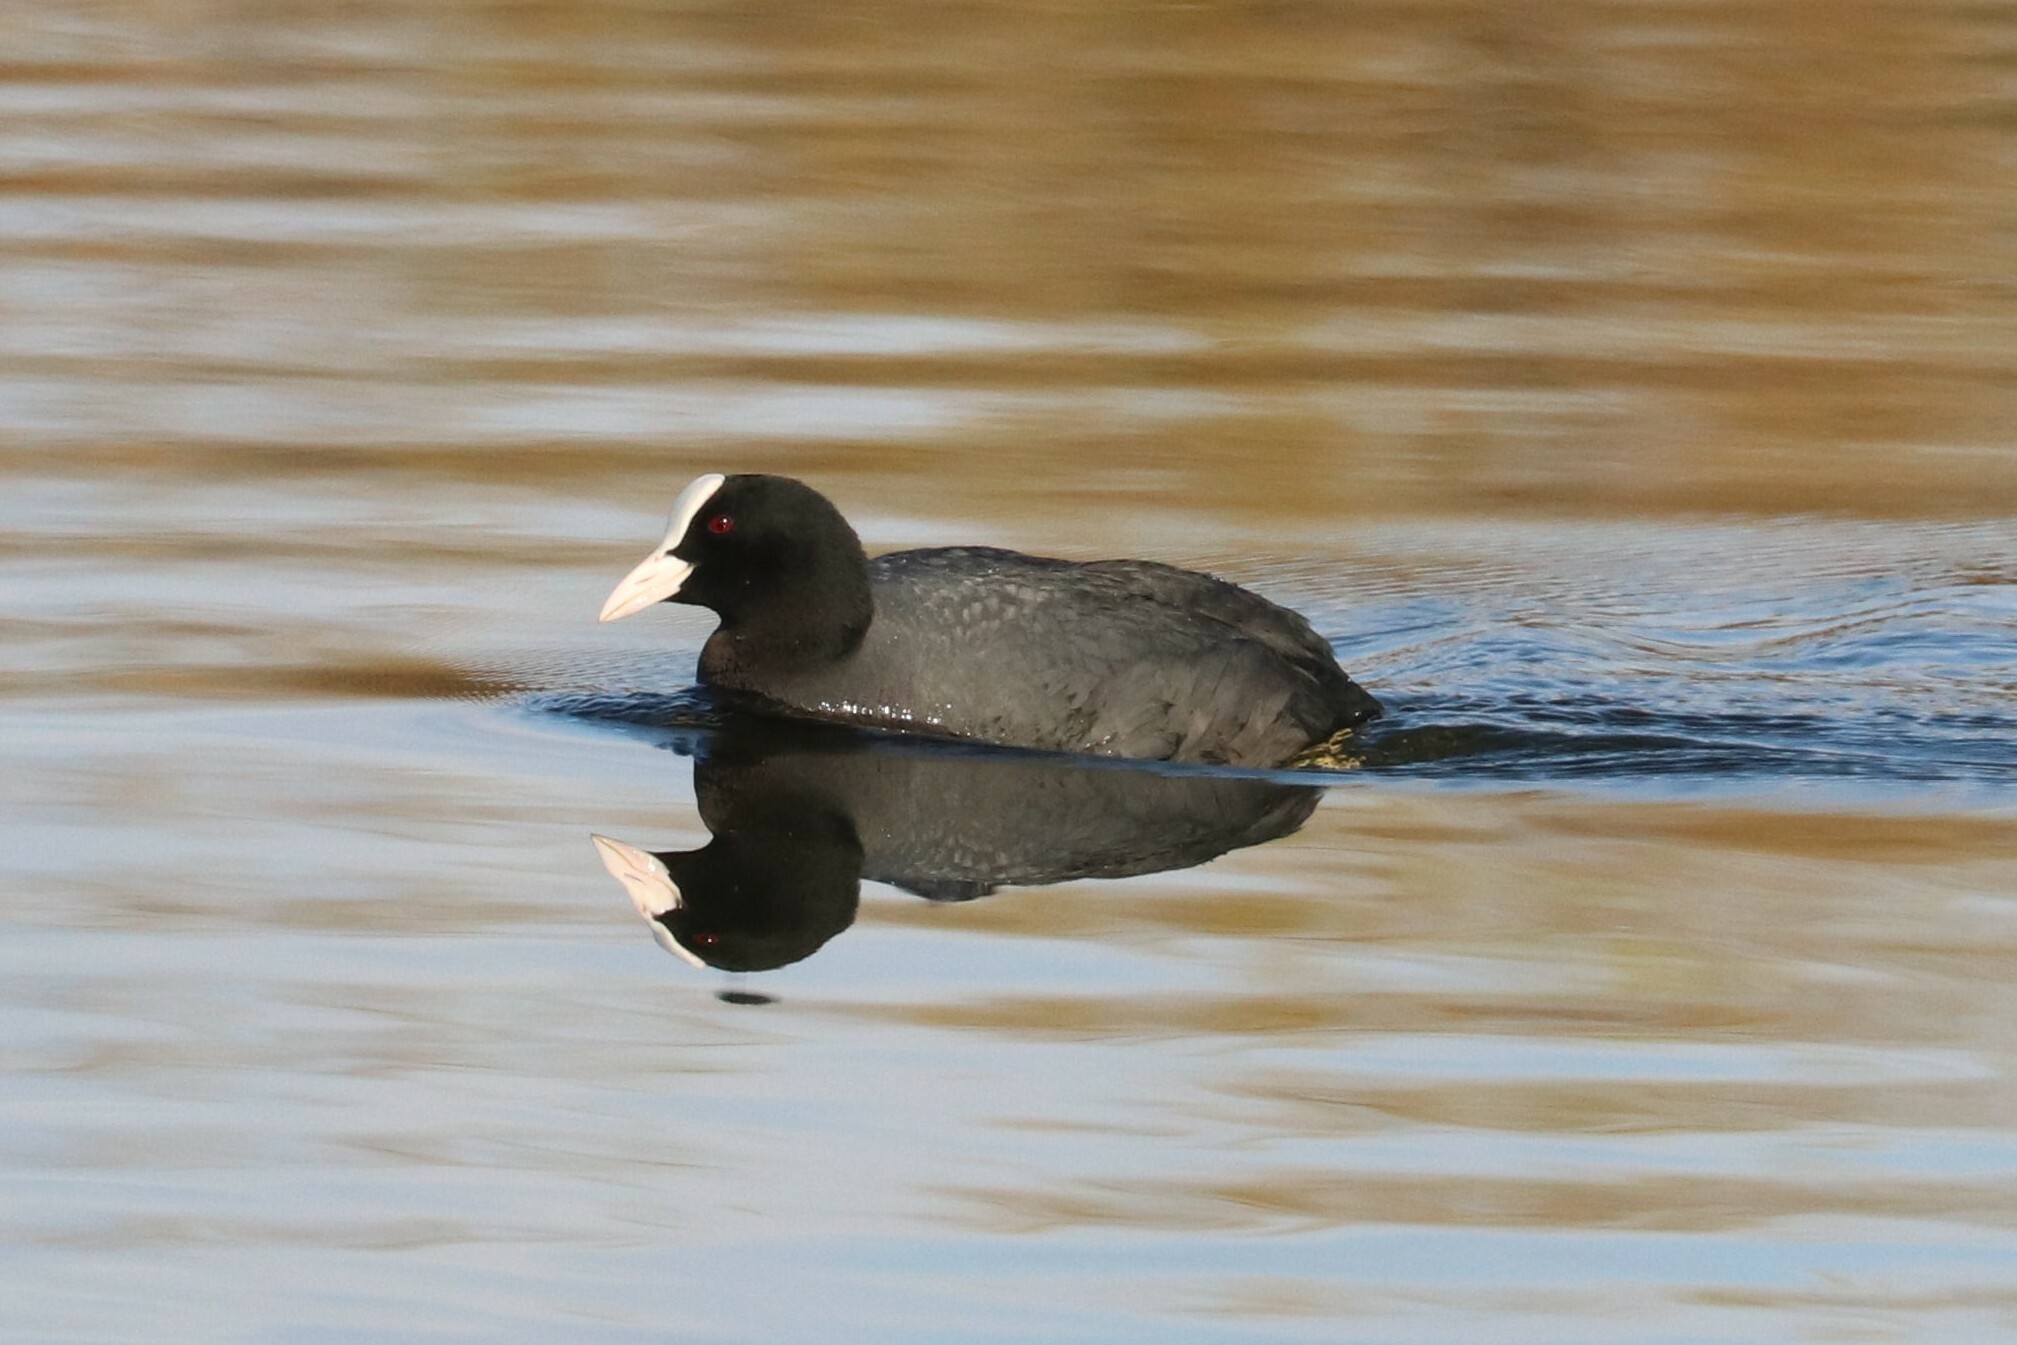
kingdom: Animalia
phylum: Chordata
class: Aves
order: Gruiformes
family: Rallidae
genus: Fulica
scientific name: Fulica atra
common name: Eurasian coot
